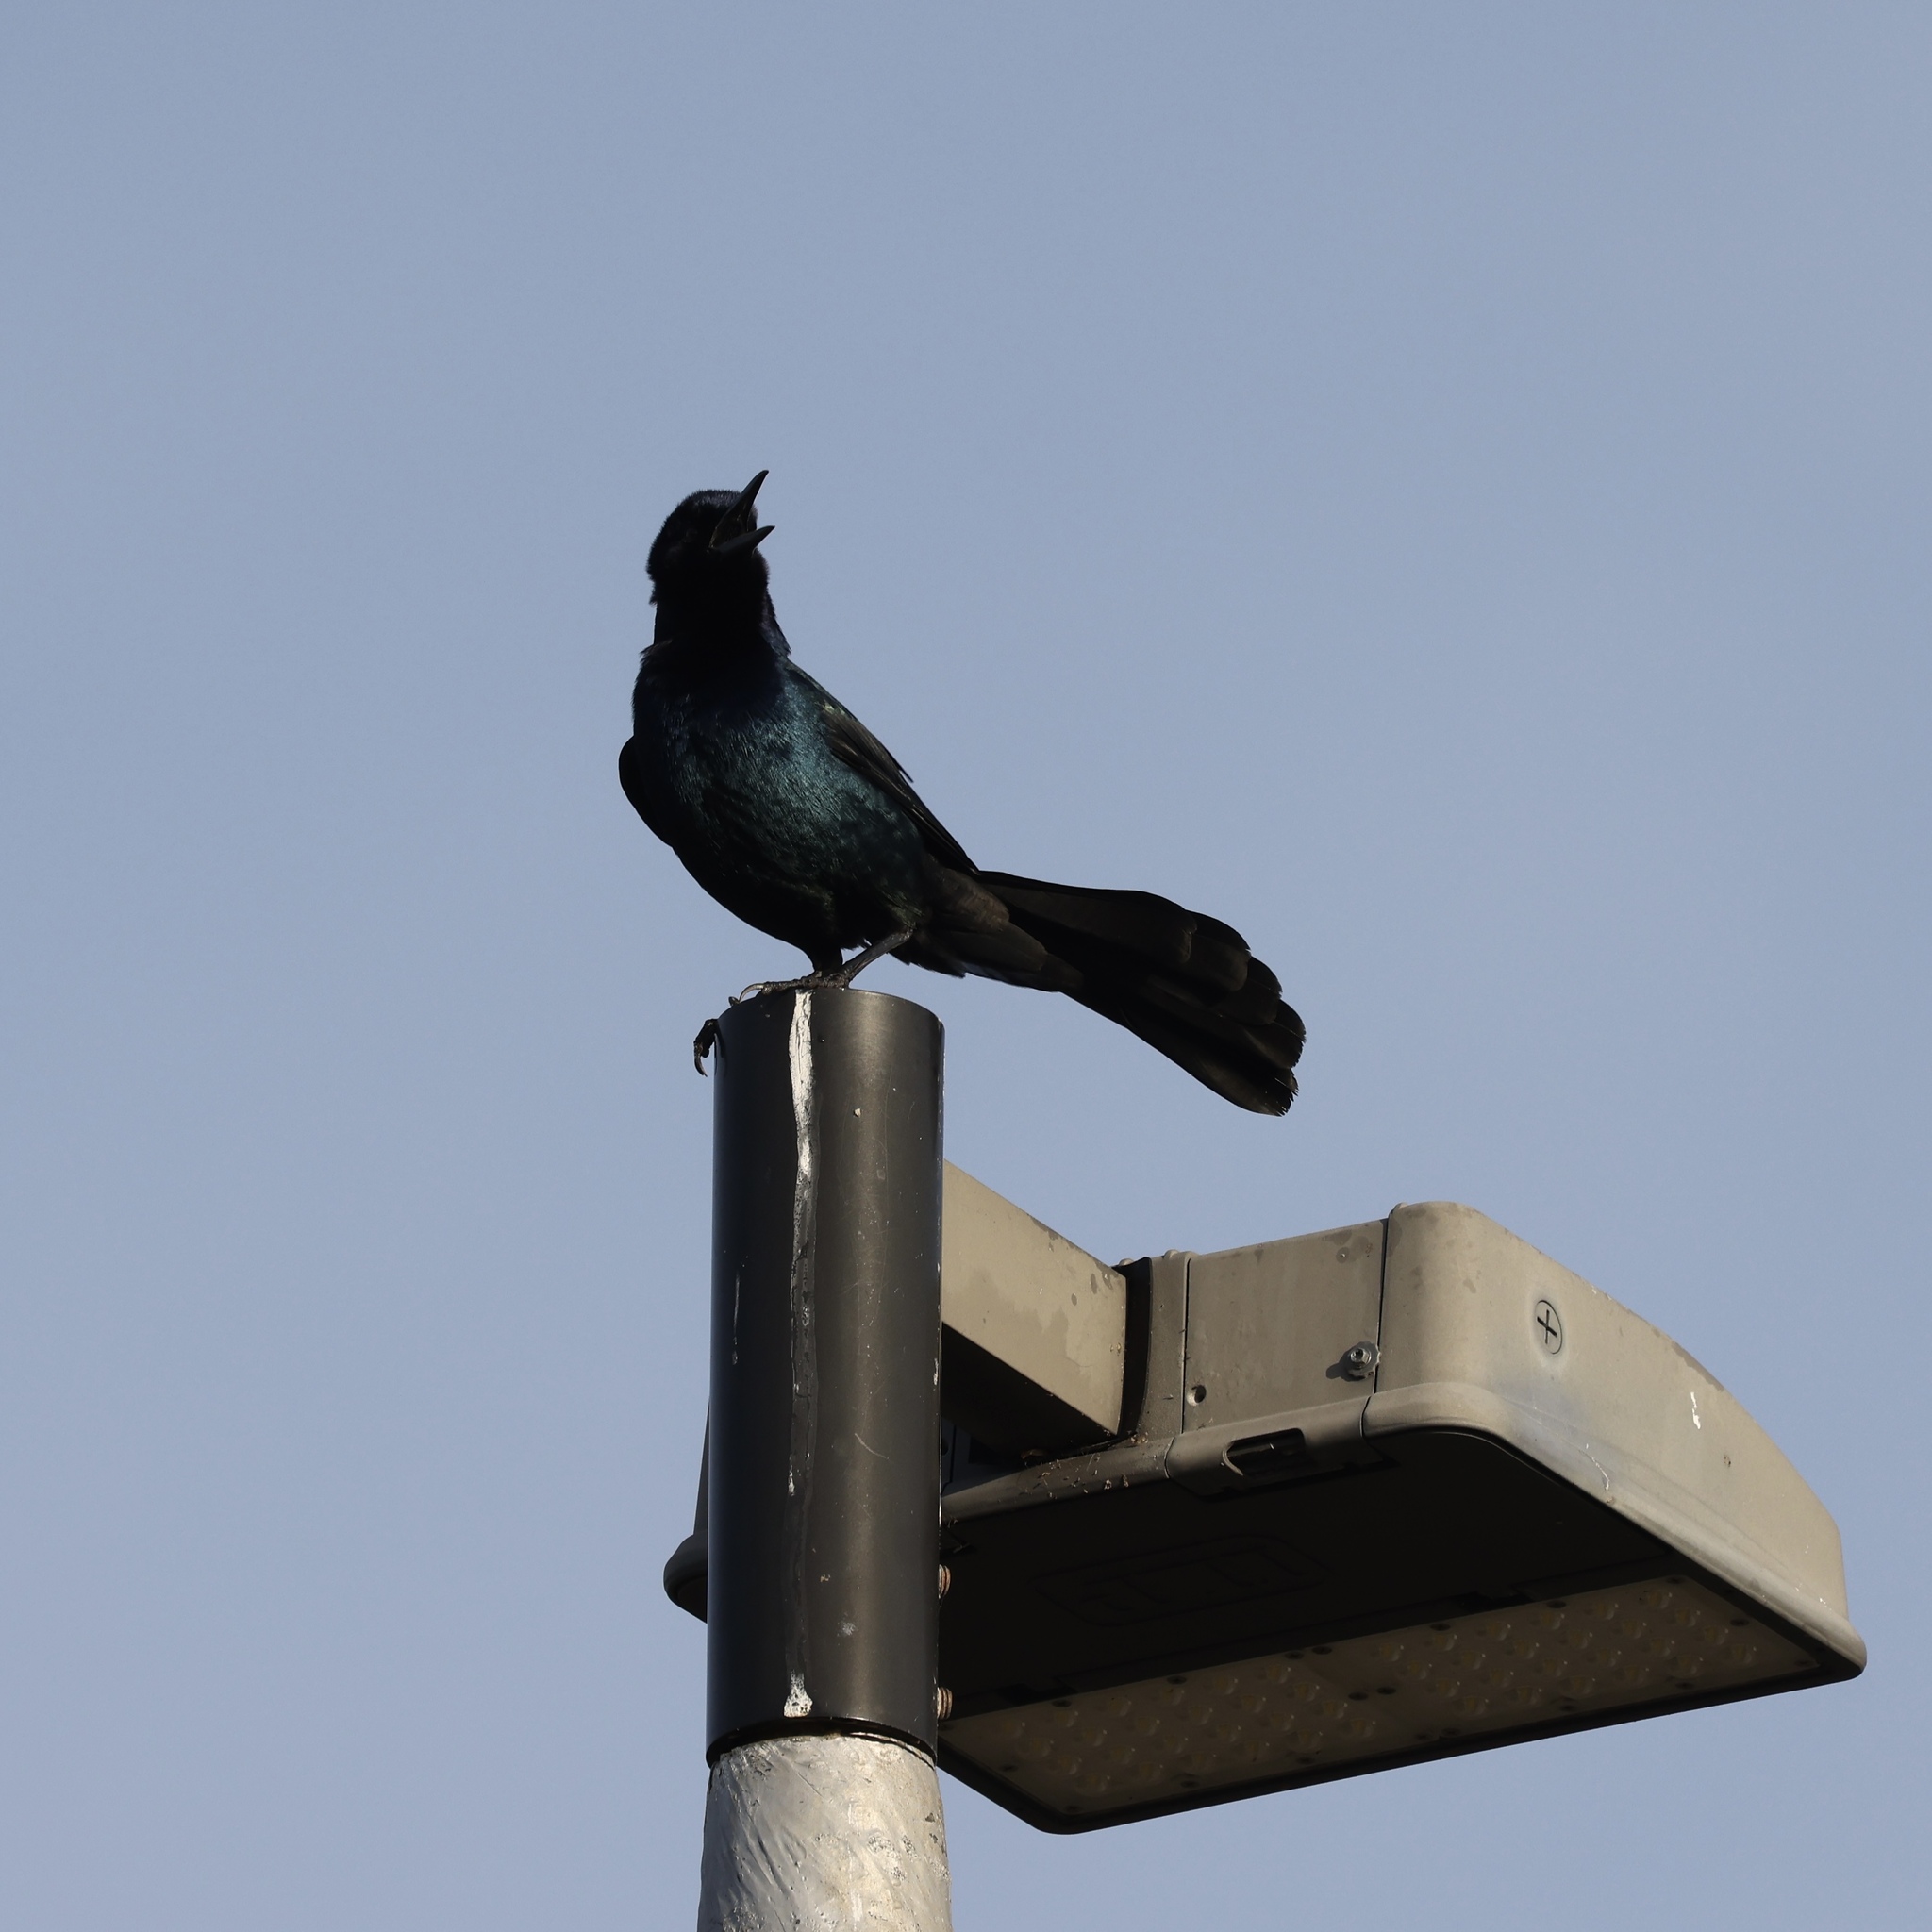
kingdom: Animalia
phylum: Chordata
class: Aves
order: Passeriformes
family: Icteridae
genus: Quiscalus
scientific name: Quiscalus major
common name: Boat-tailed grackle
